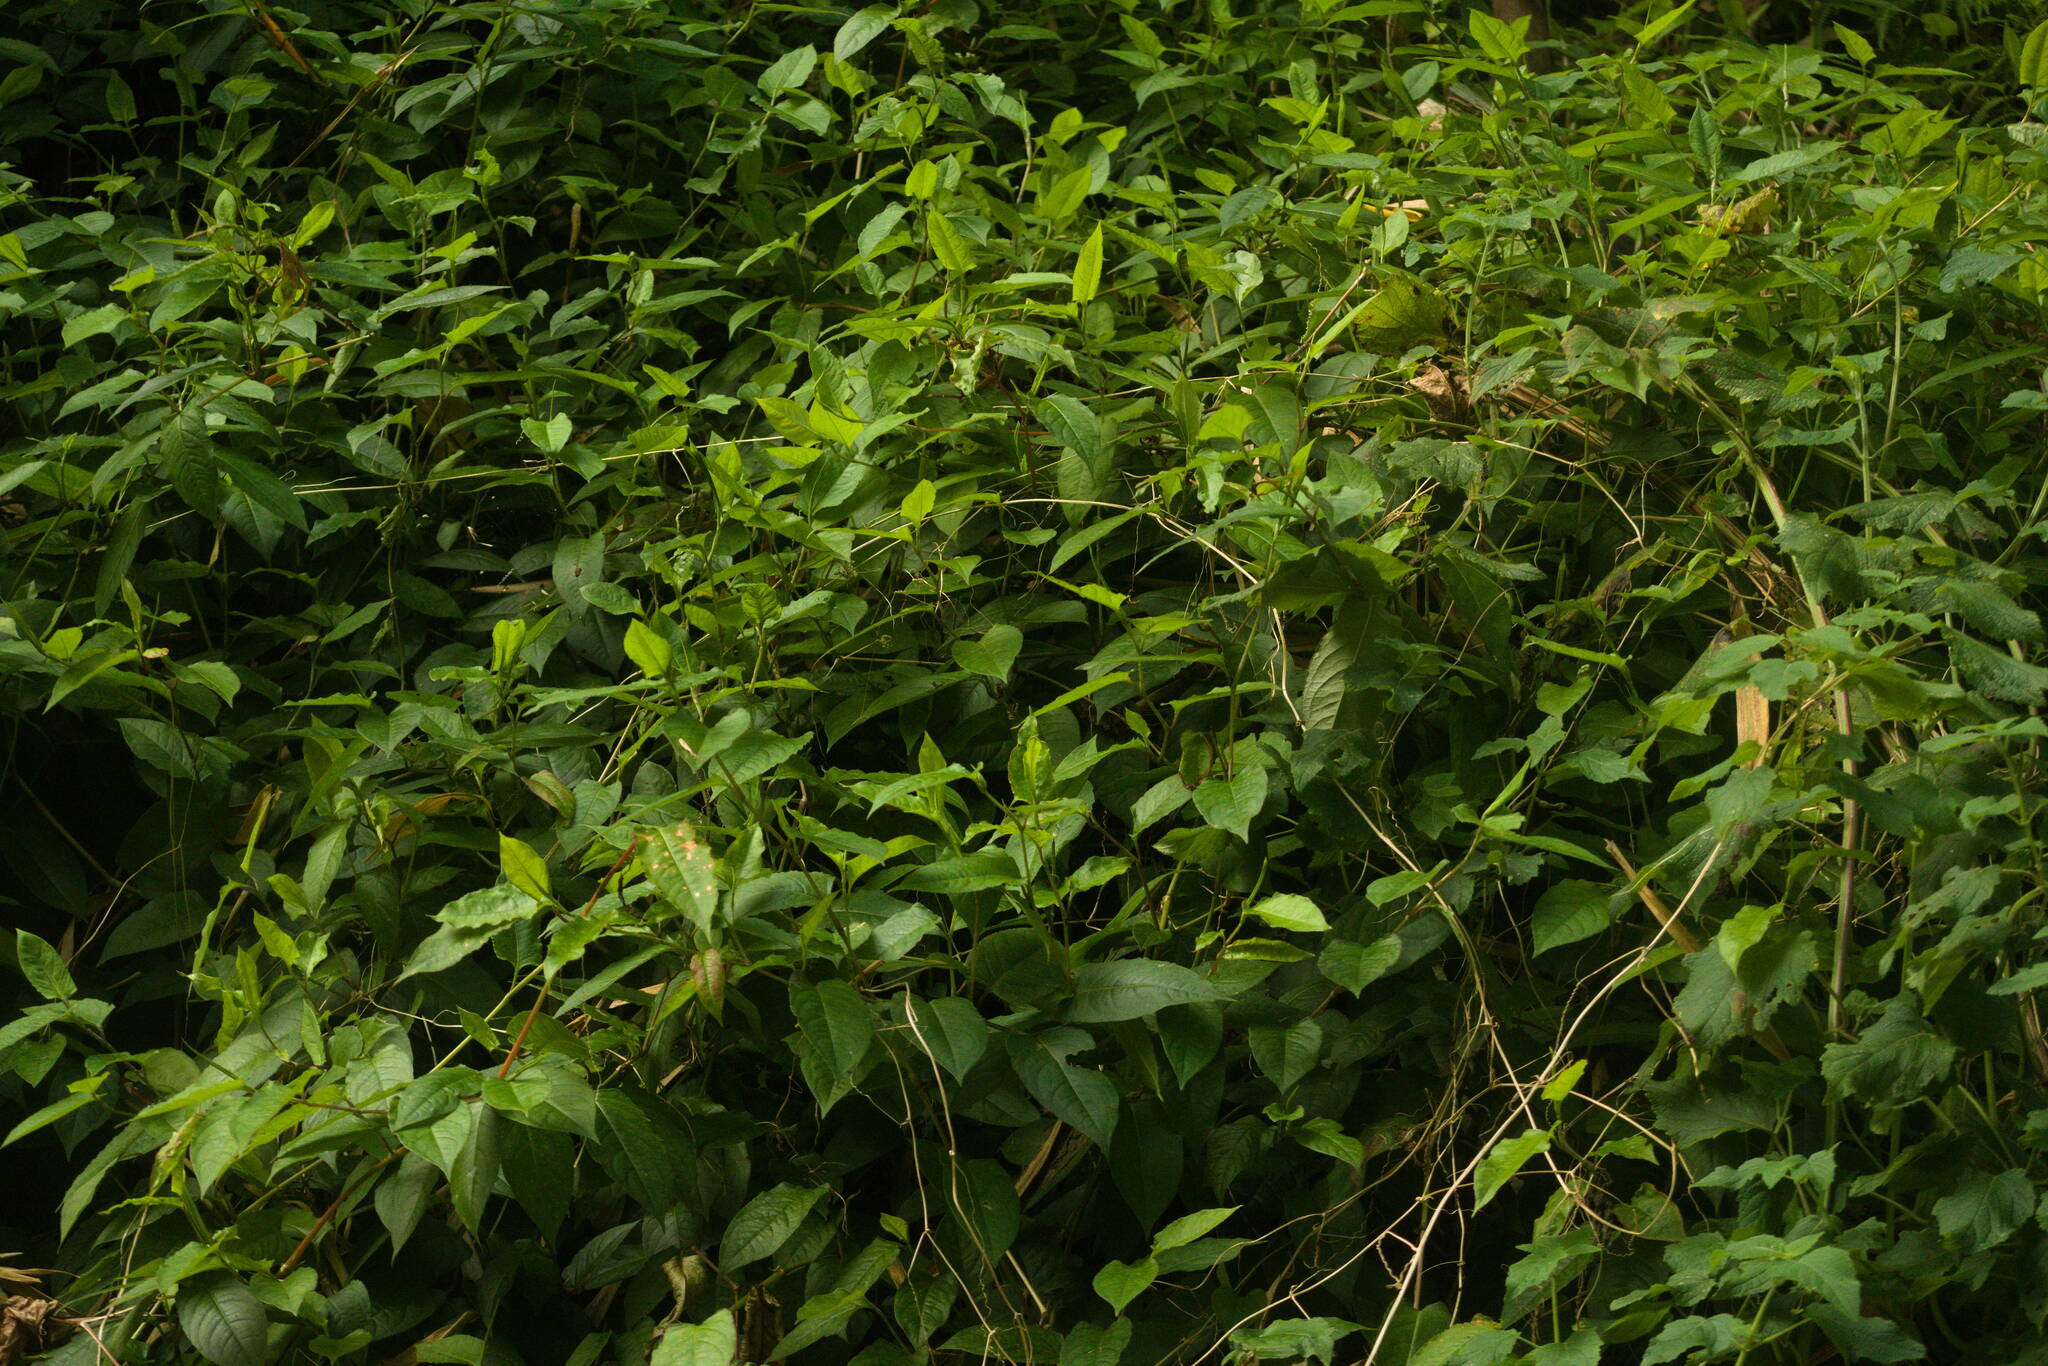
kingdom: Plantae
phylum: Tracheophyta
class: Magnoliopsida
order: Caryophyllales
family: Polygonaceae
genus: Persicaria
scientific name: Persicaria chinensis
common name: Chinese knotweed
